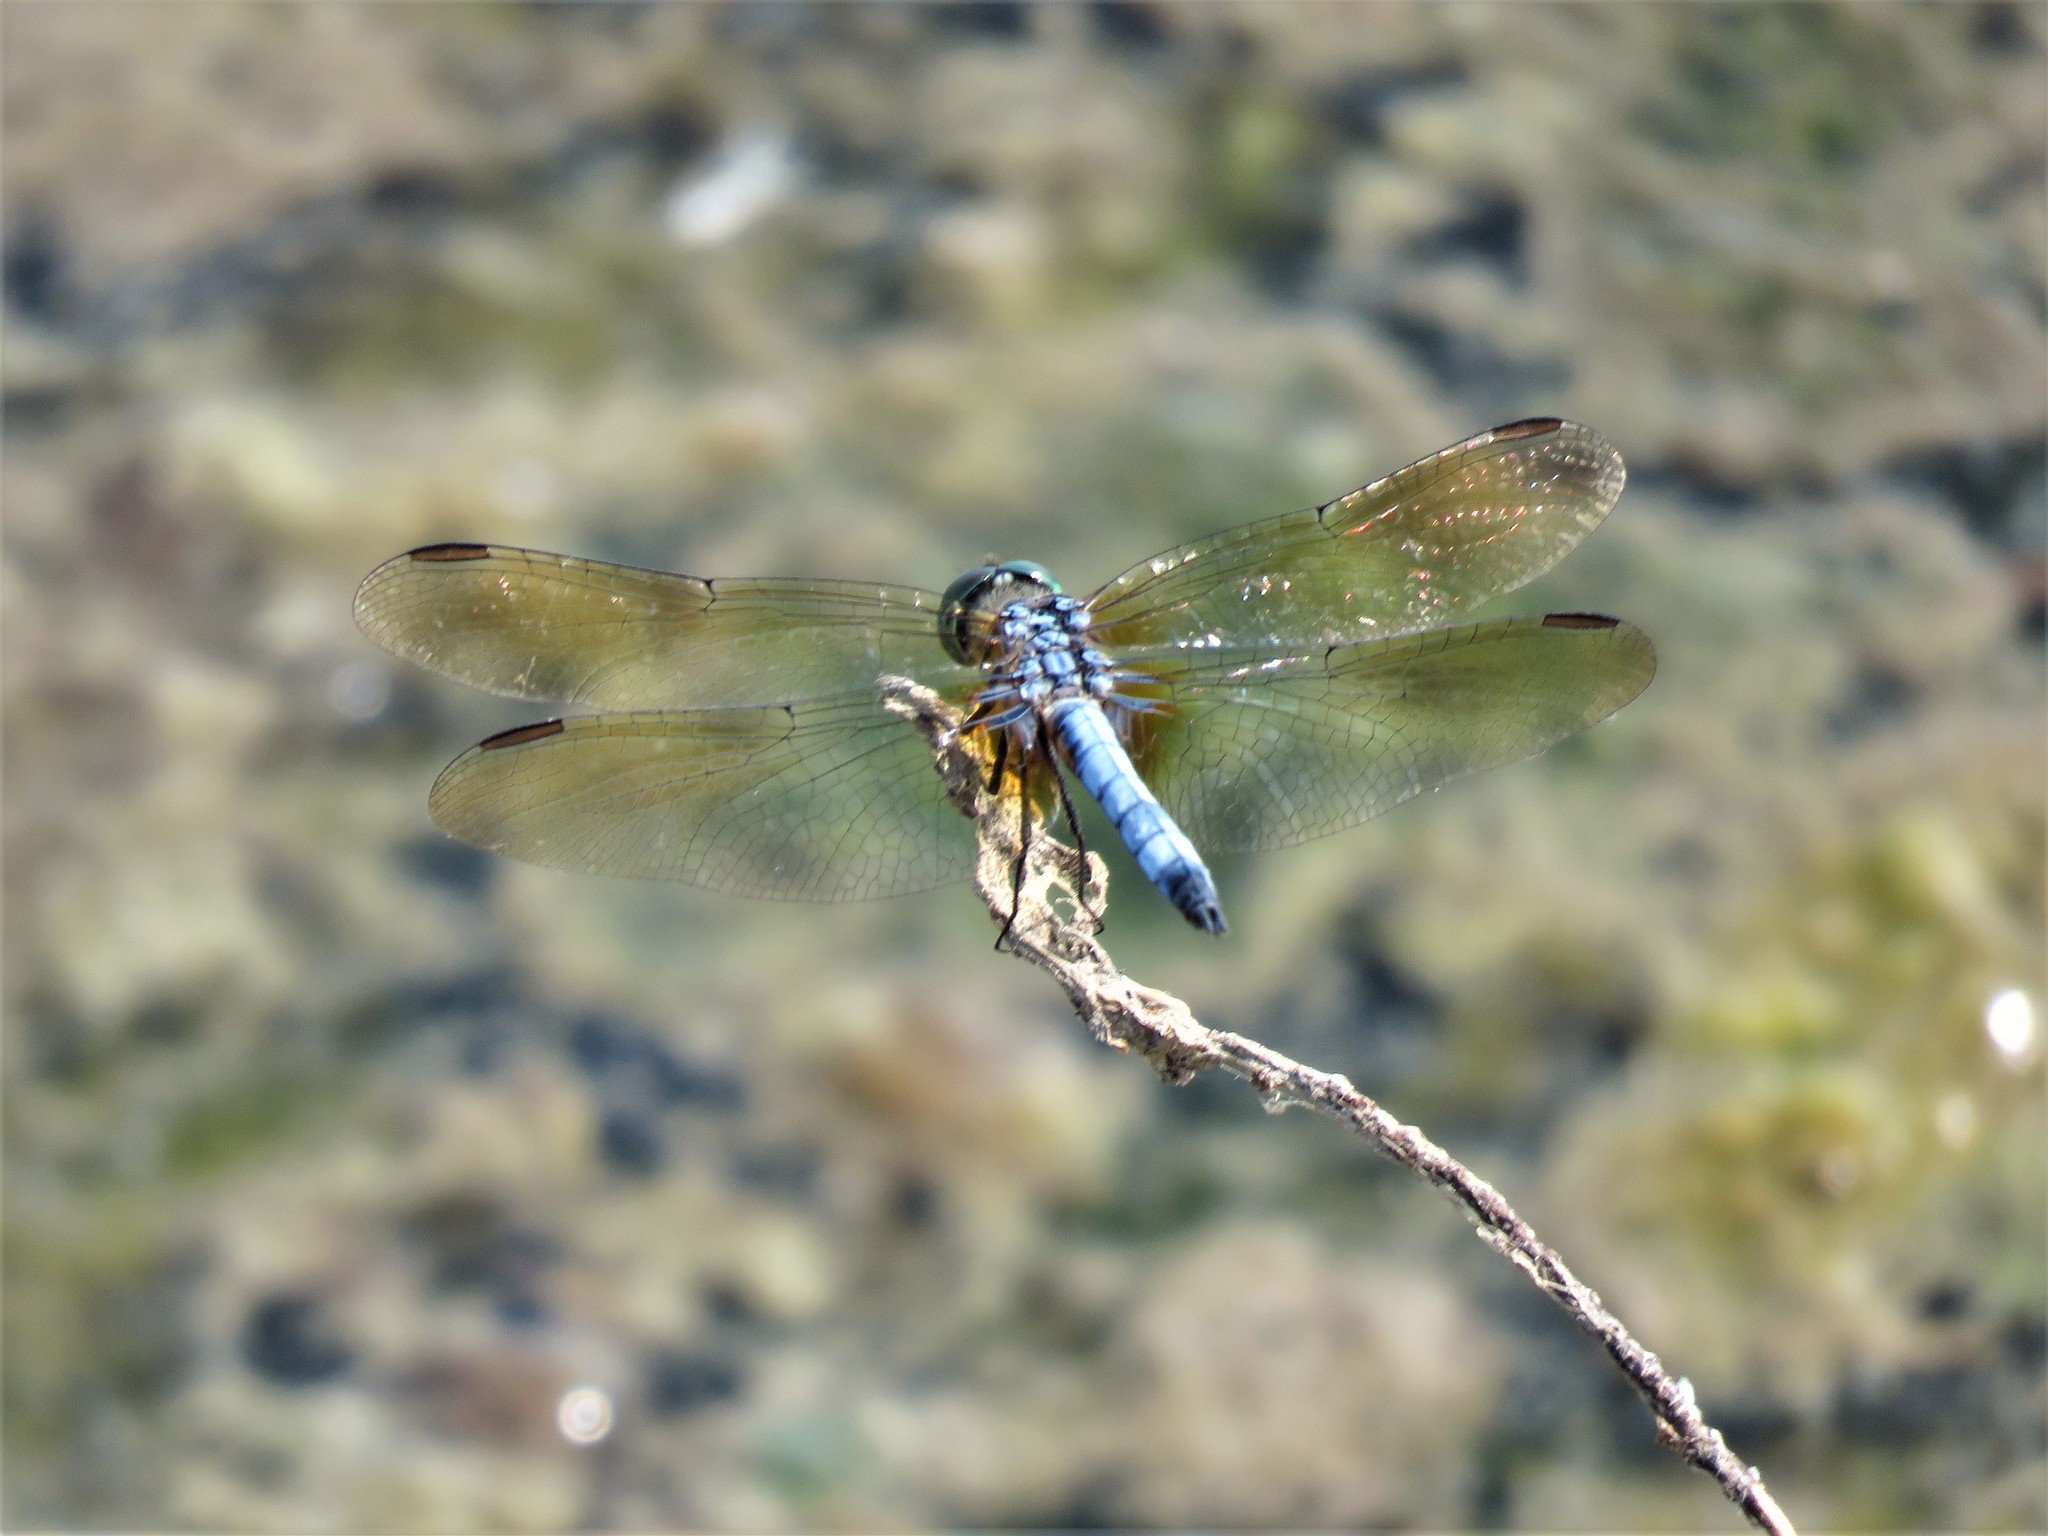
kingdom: Animalia
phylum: Arthropoda
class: Insecta
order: Odonata
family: Libellulidae
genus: Pachydiplax
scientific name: Pachydiplax longipennis
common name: Blue dasher
